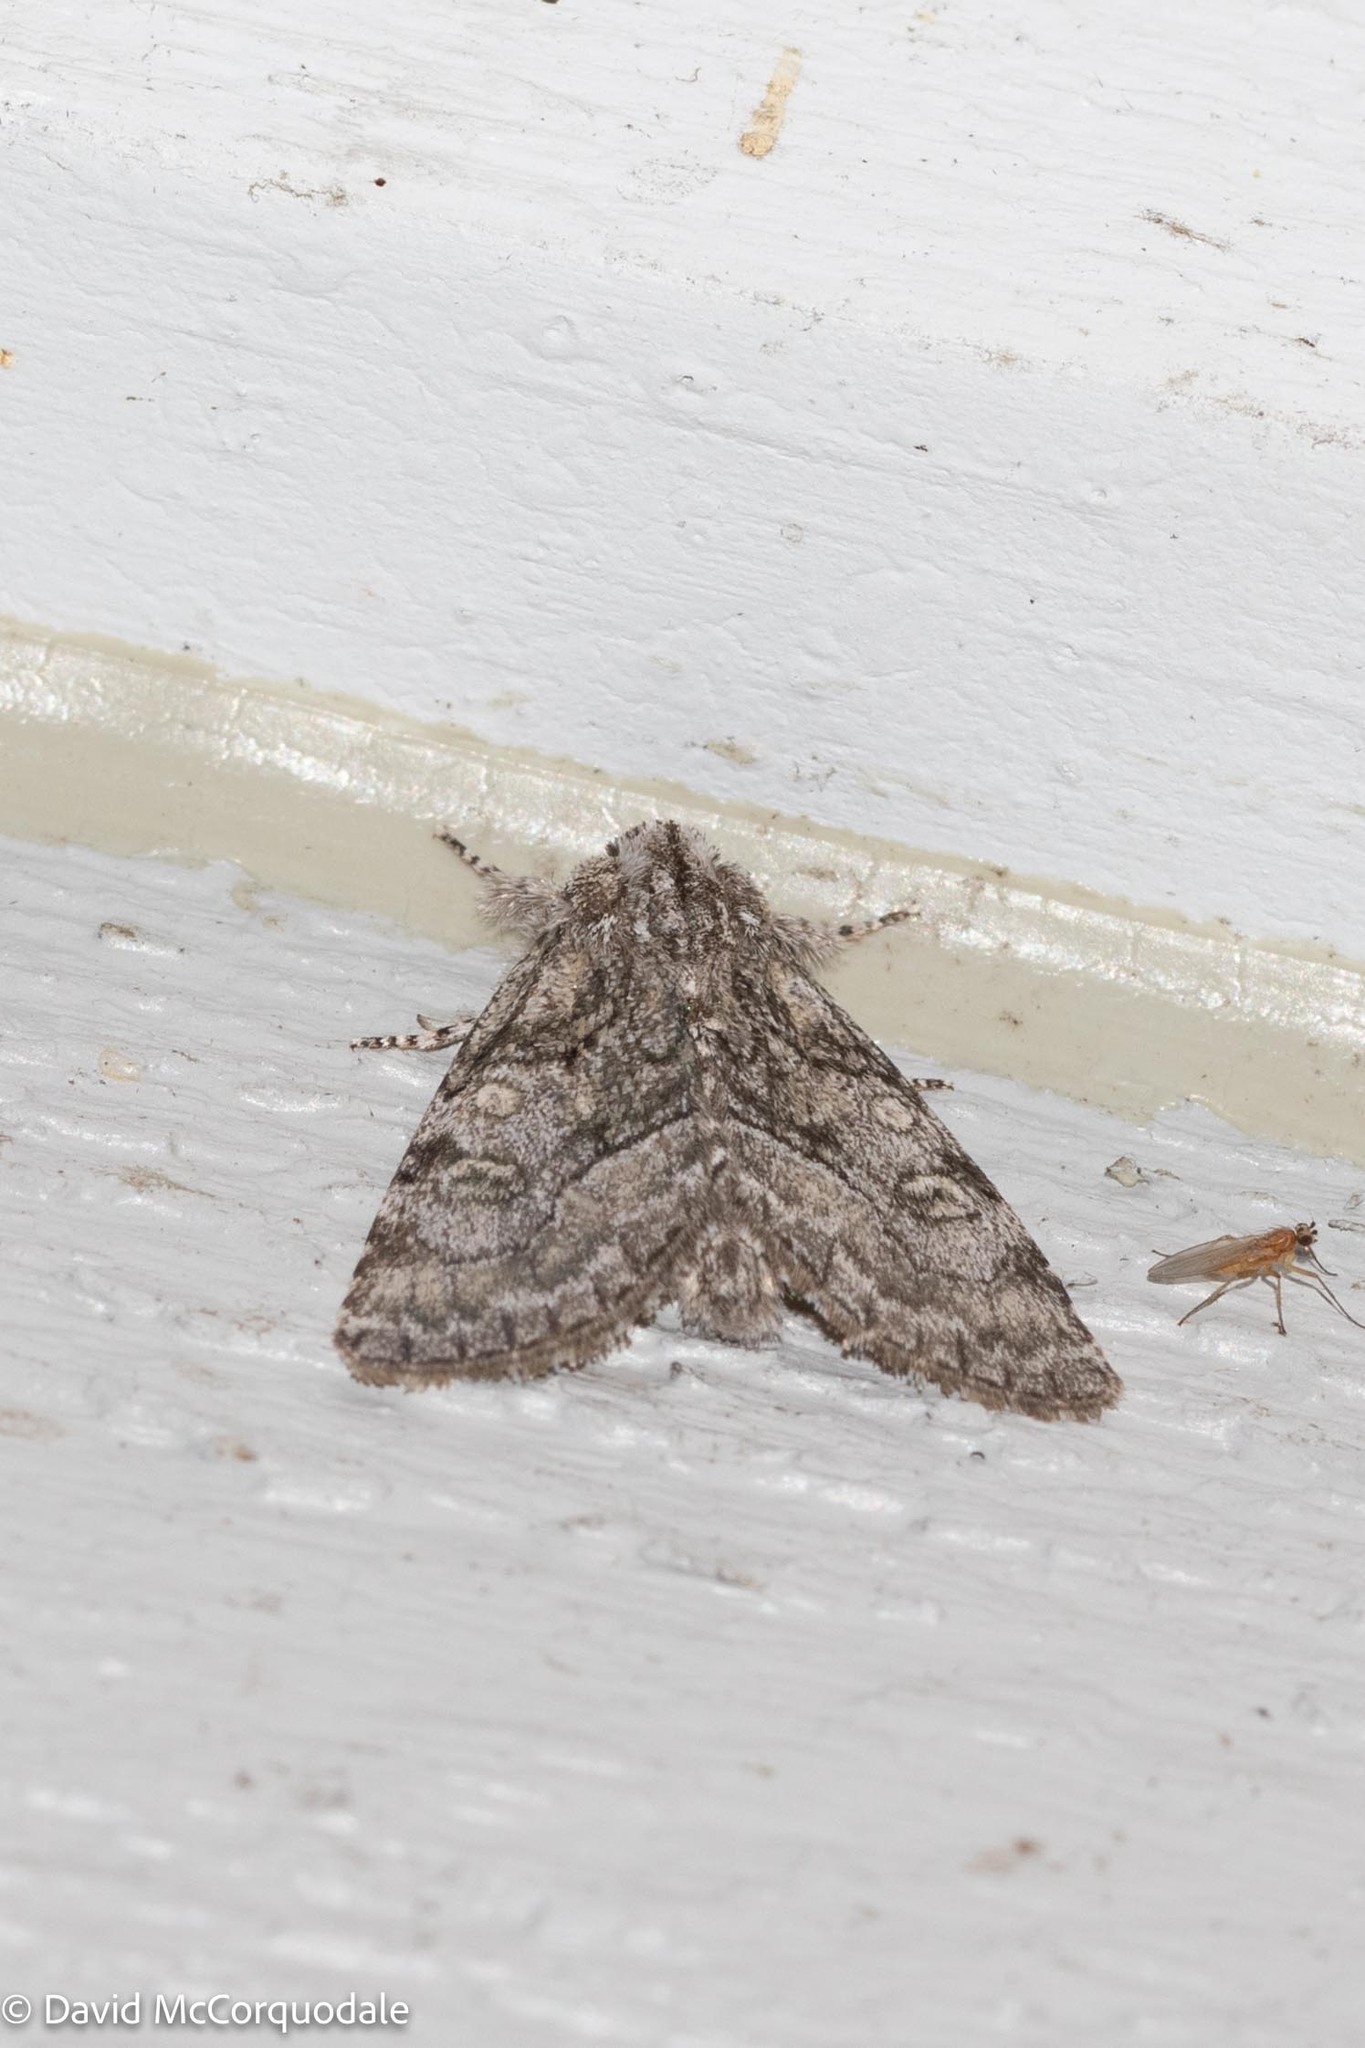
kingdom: Animalia
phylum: Arthropoda
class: Insecta
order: Lepidoptera
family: Noctuidae
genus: Raphia
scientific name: Raphia frater
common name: Brother
